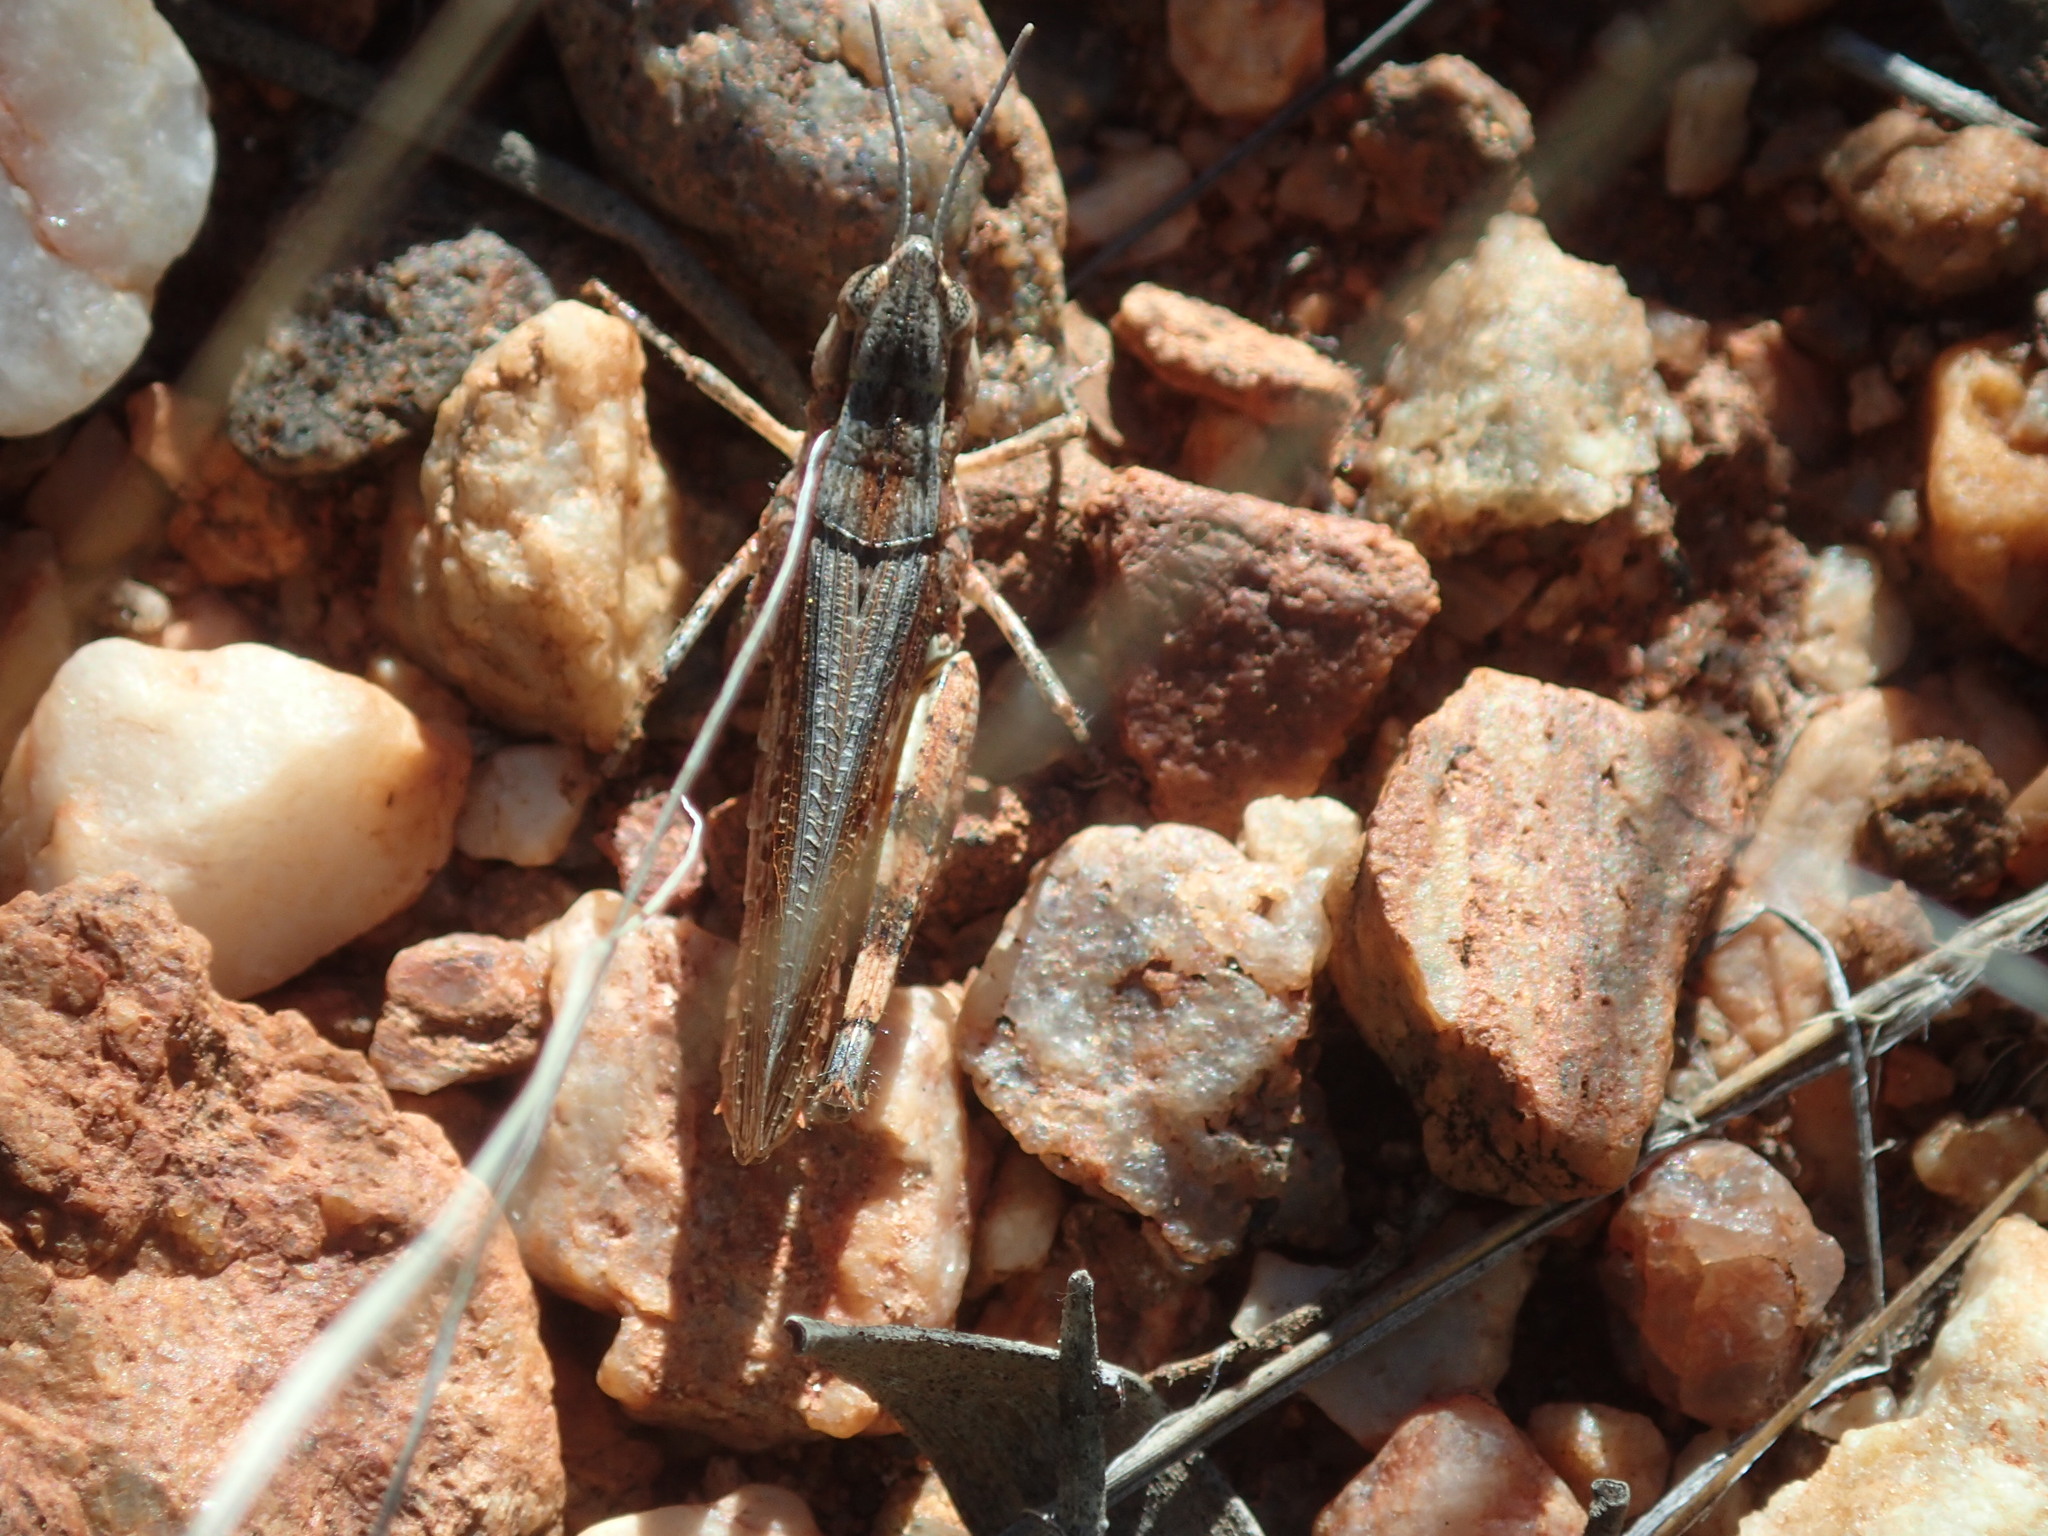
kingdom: Animalia
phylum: Arthropoda
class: Insecta
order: Orthoptera
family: Acrididae
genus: Azelota
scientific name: Azelota
